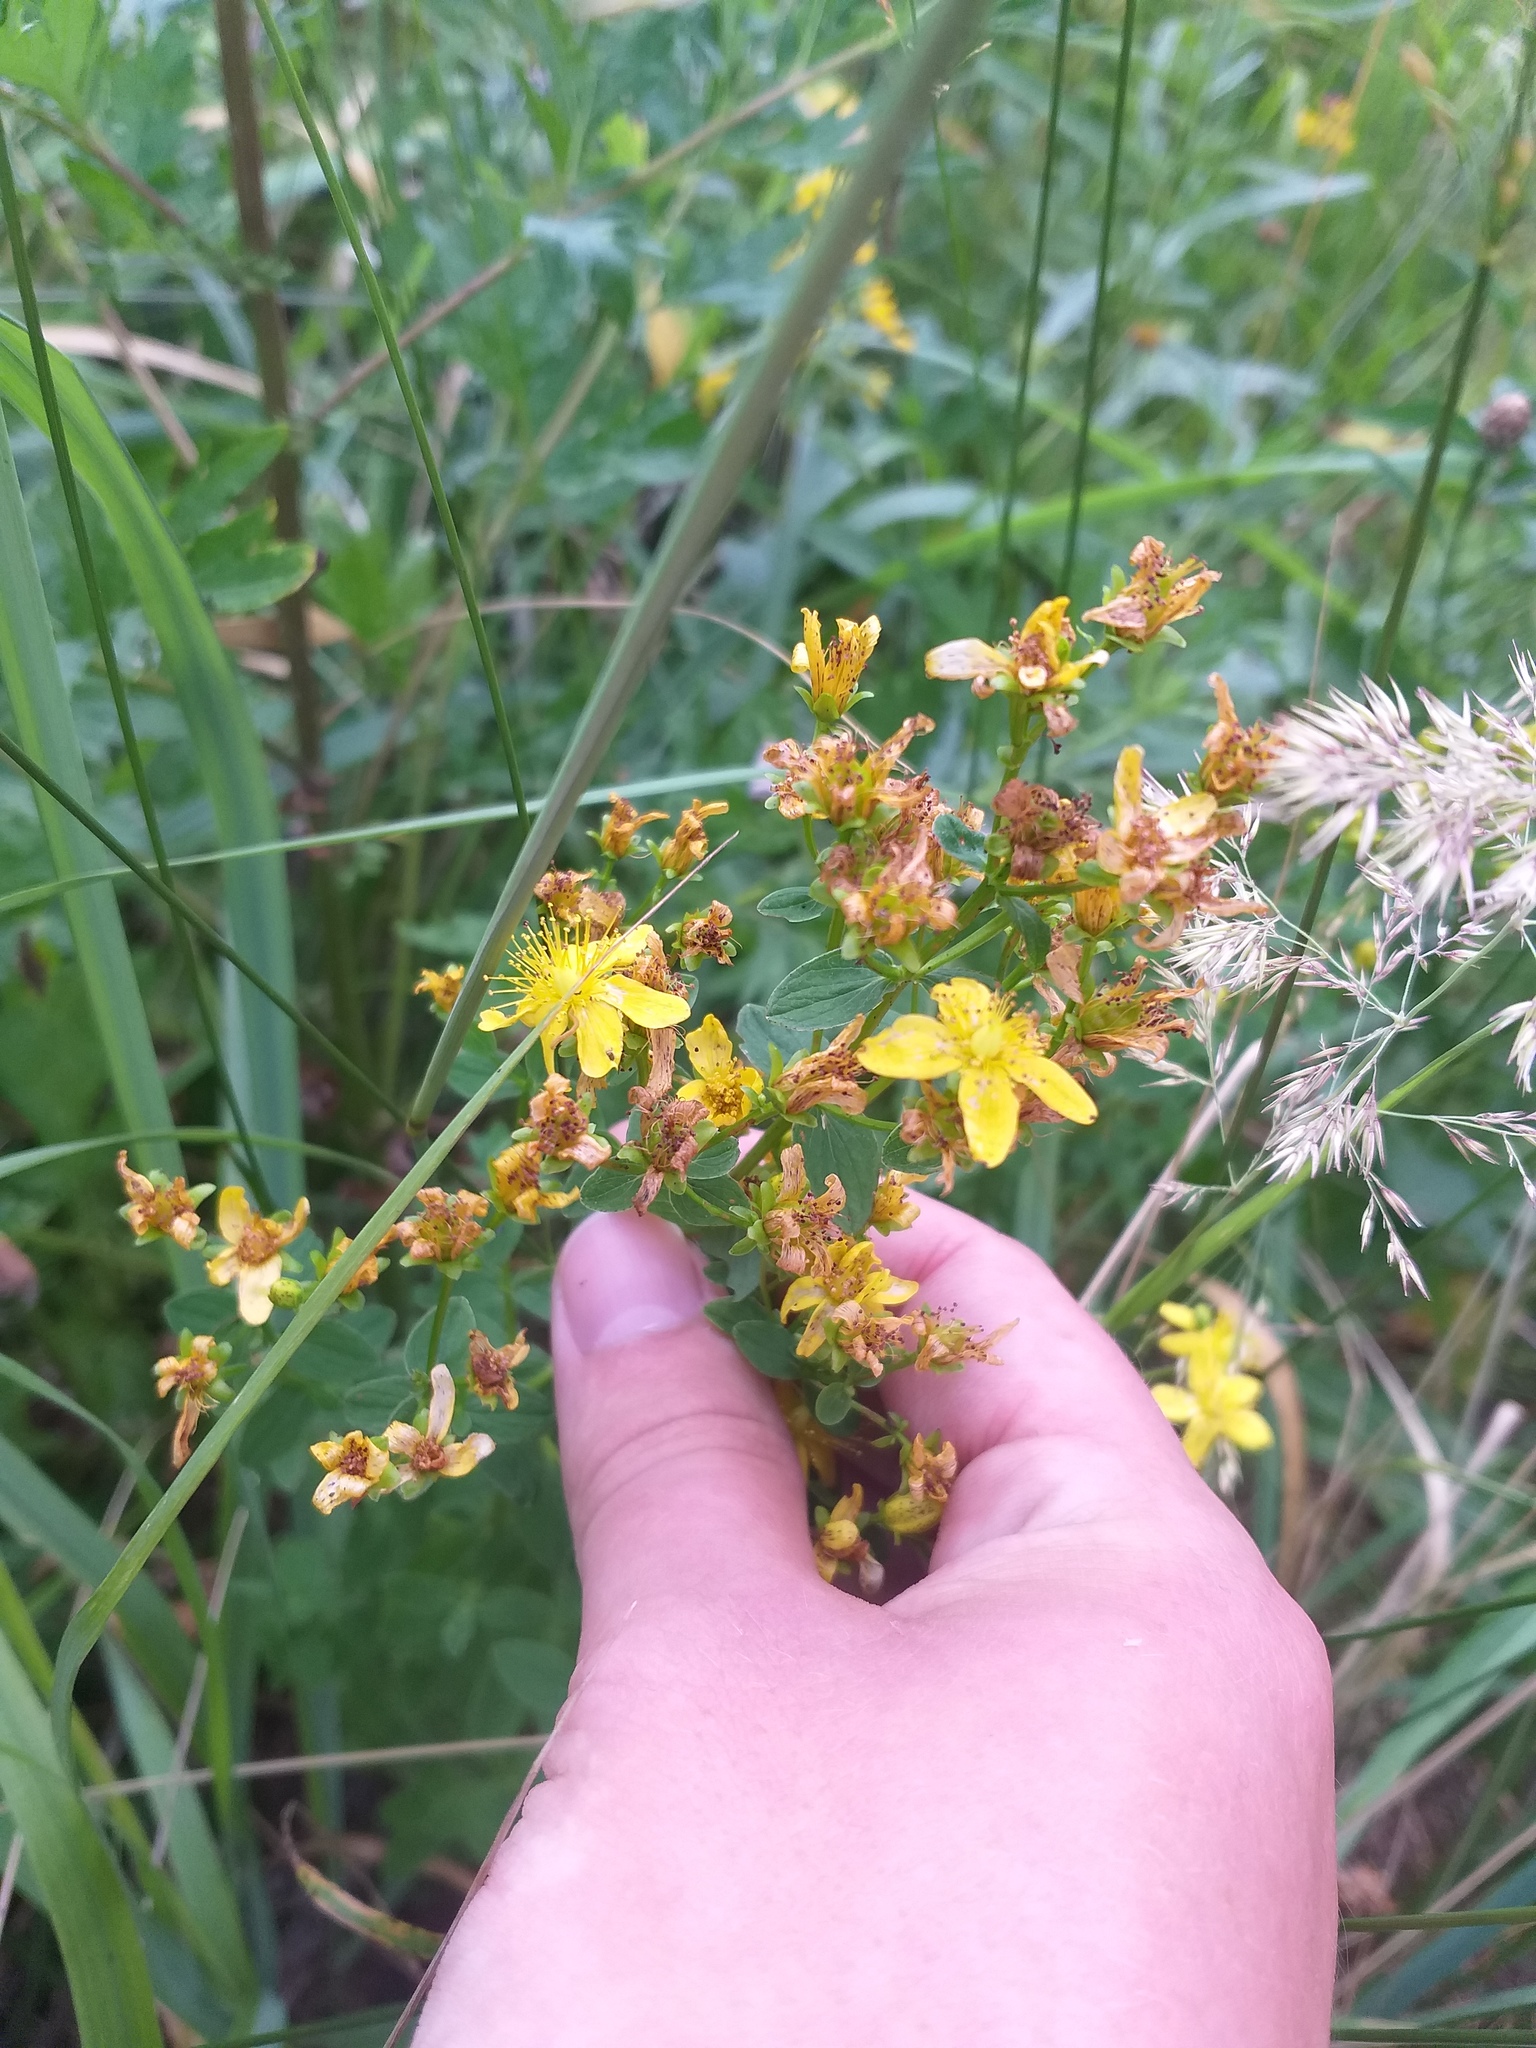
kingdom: Plantae
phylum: Tracheophyta
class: Magnoliopsida
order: Malpighiales
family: Hypericaceae
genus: Hypericum
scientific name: Hypericum maculatum
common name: Imperforate st. john's-wort
